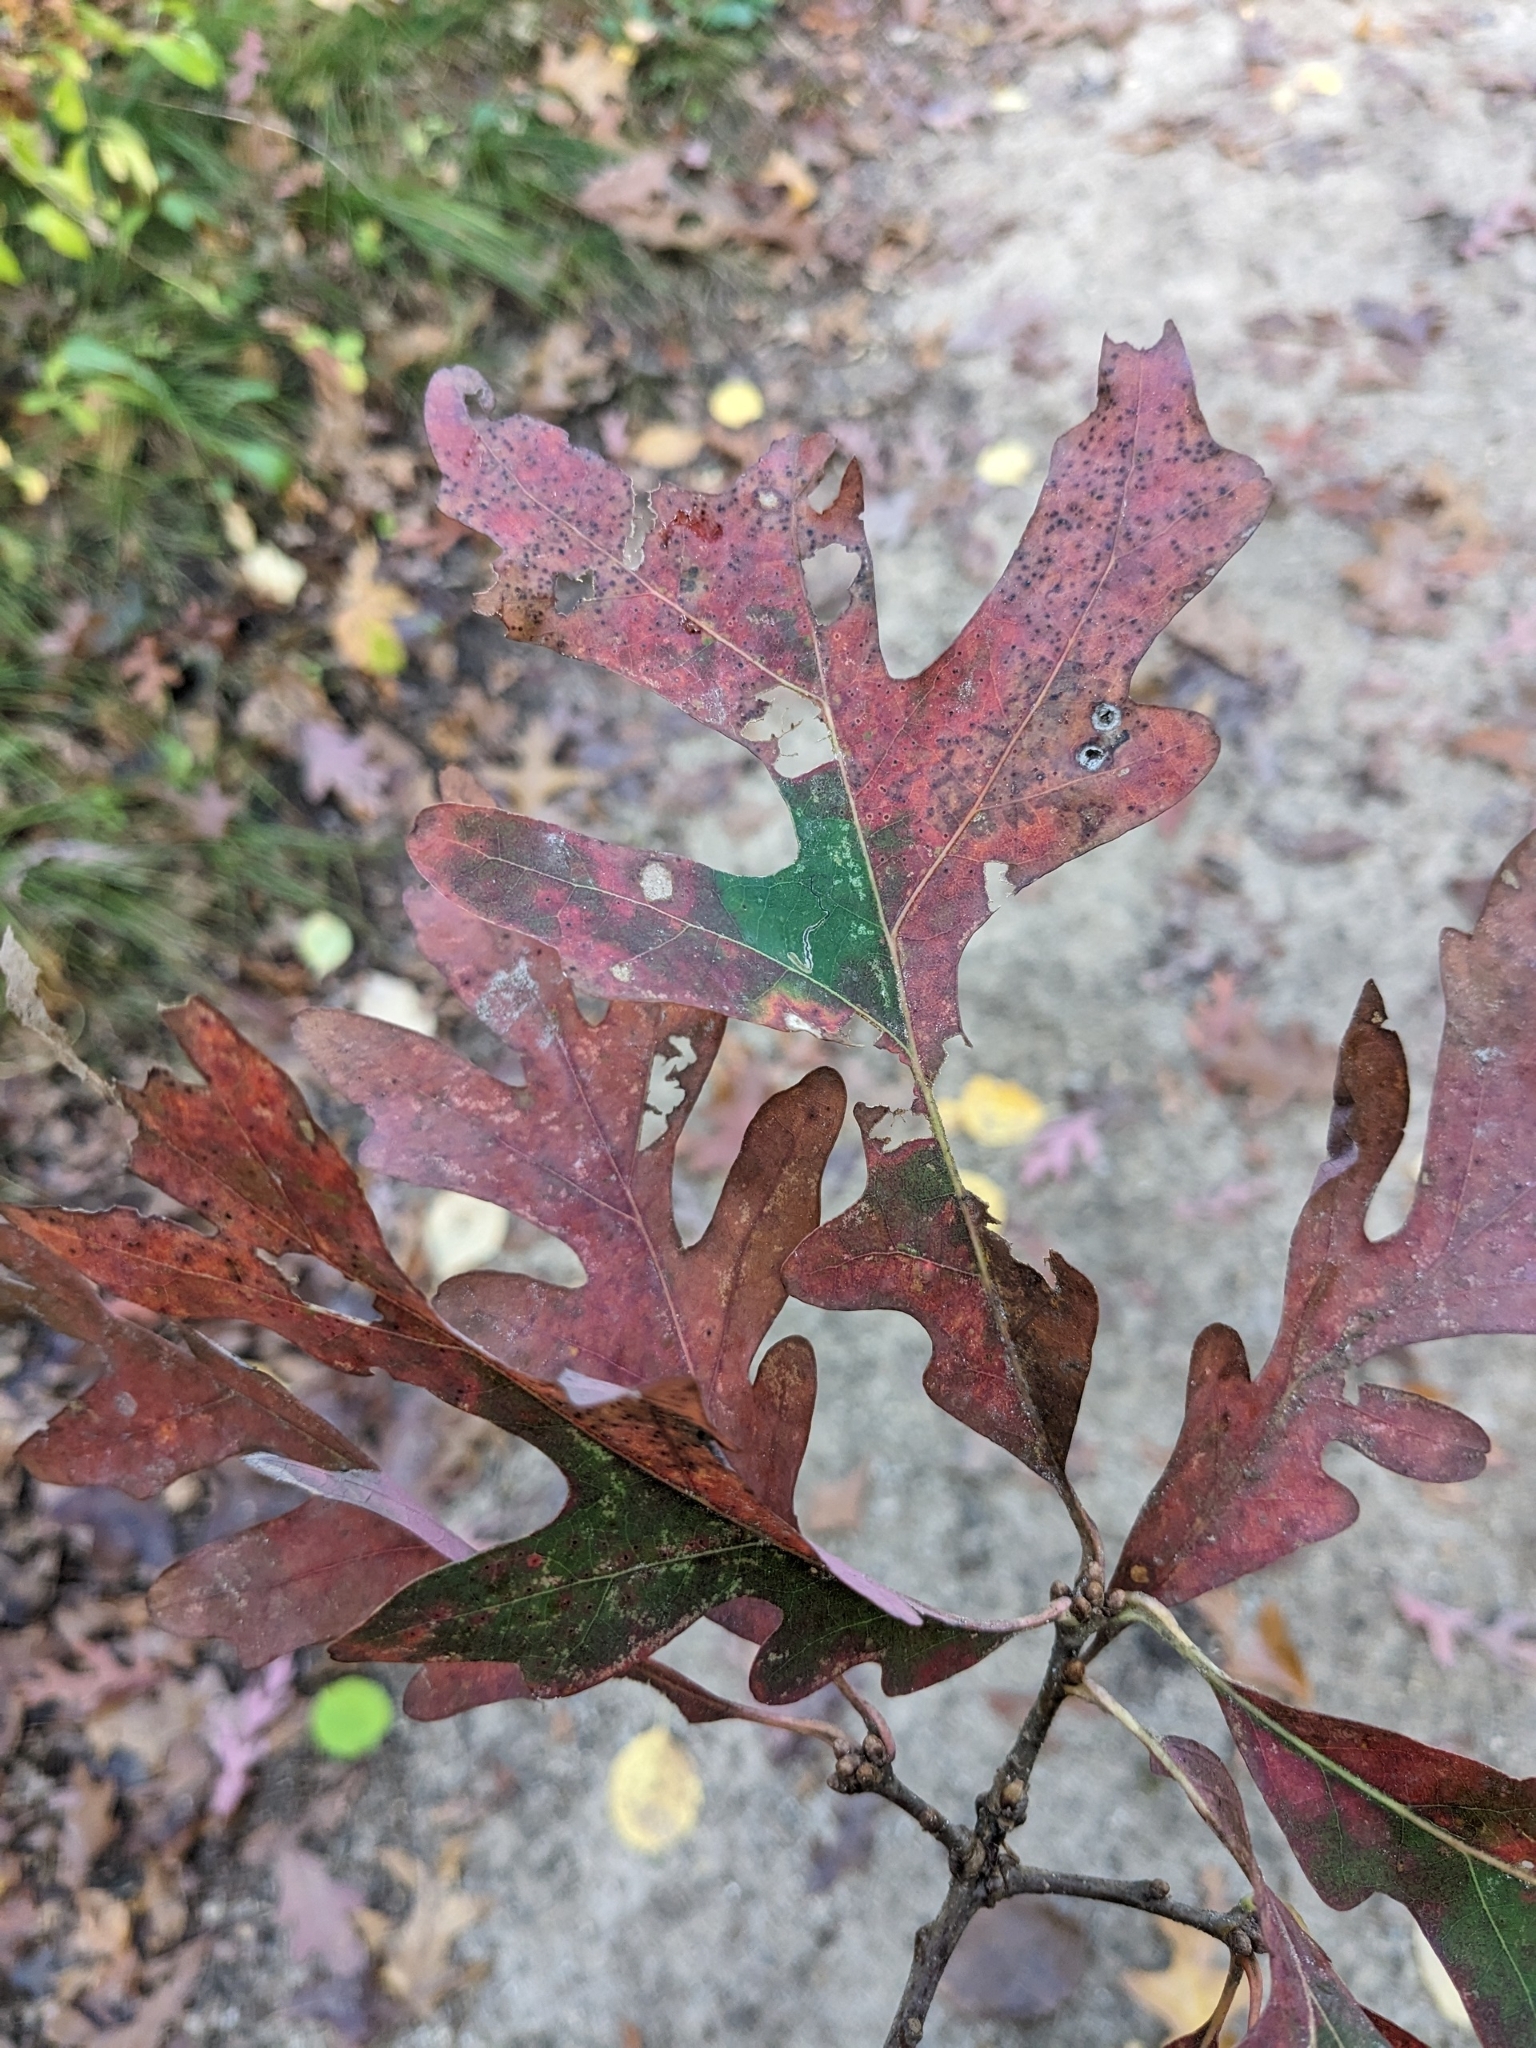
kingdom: Plantae
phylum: Tracheophyta
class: Magnoliopsida
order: Fagales
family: Fagaceae
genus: Quercus
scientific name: Quercus alba
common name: White oak
